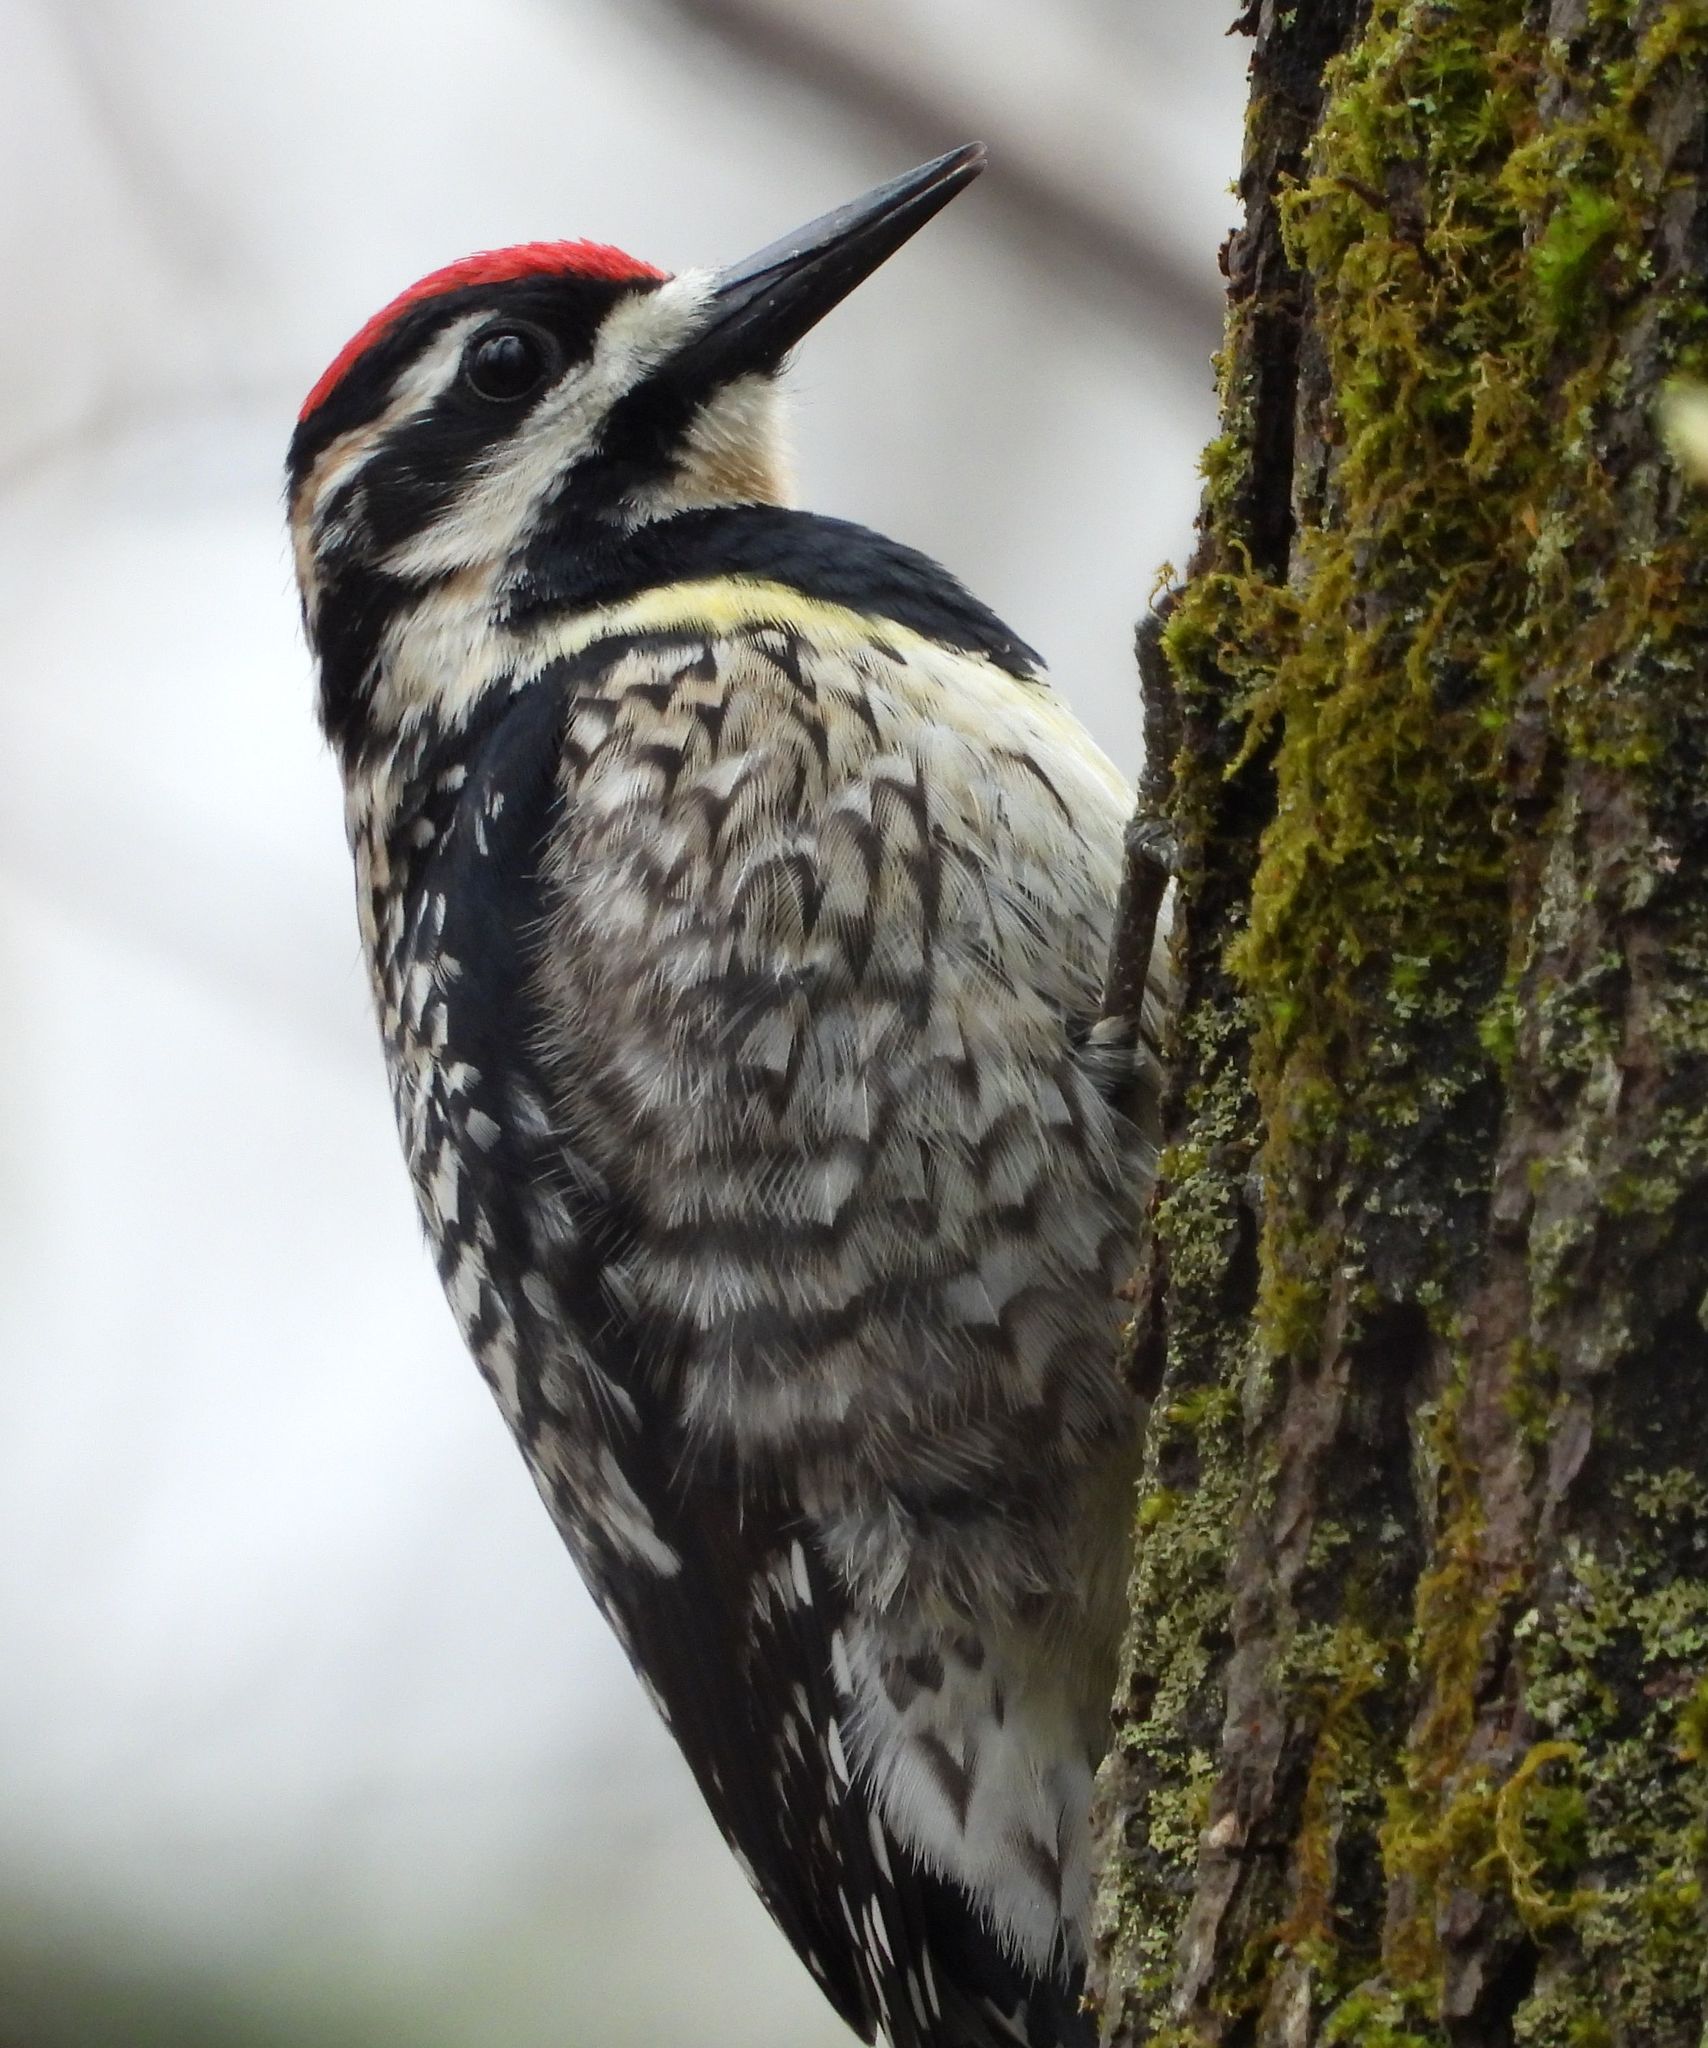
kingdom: Animalia
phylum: Chordata
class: Aves
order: Piciformes
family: Picidae
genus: Sphyrapicus
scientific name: Sphyrapicus varius
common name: Yellow-bellied sapsucker
